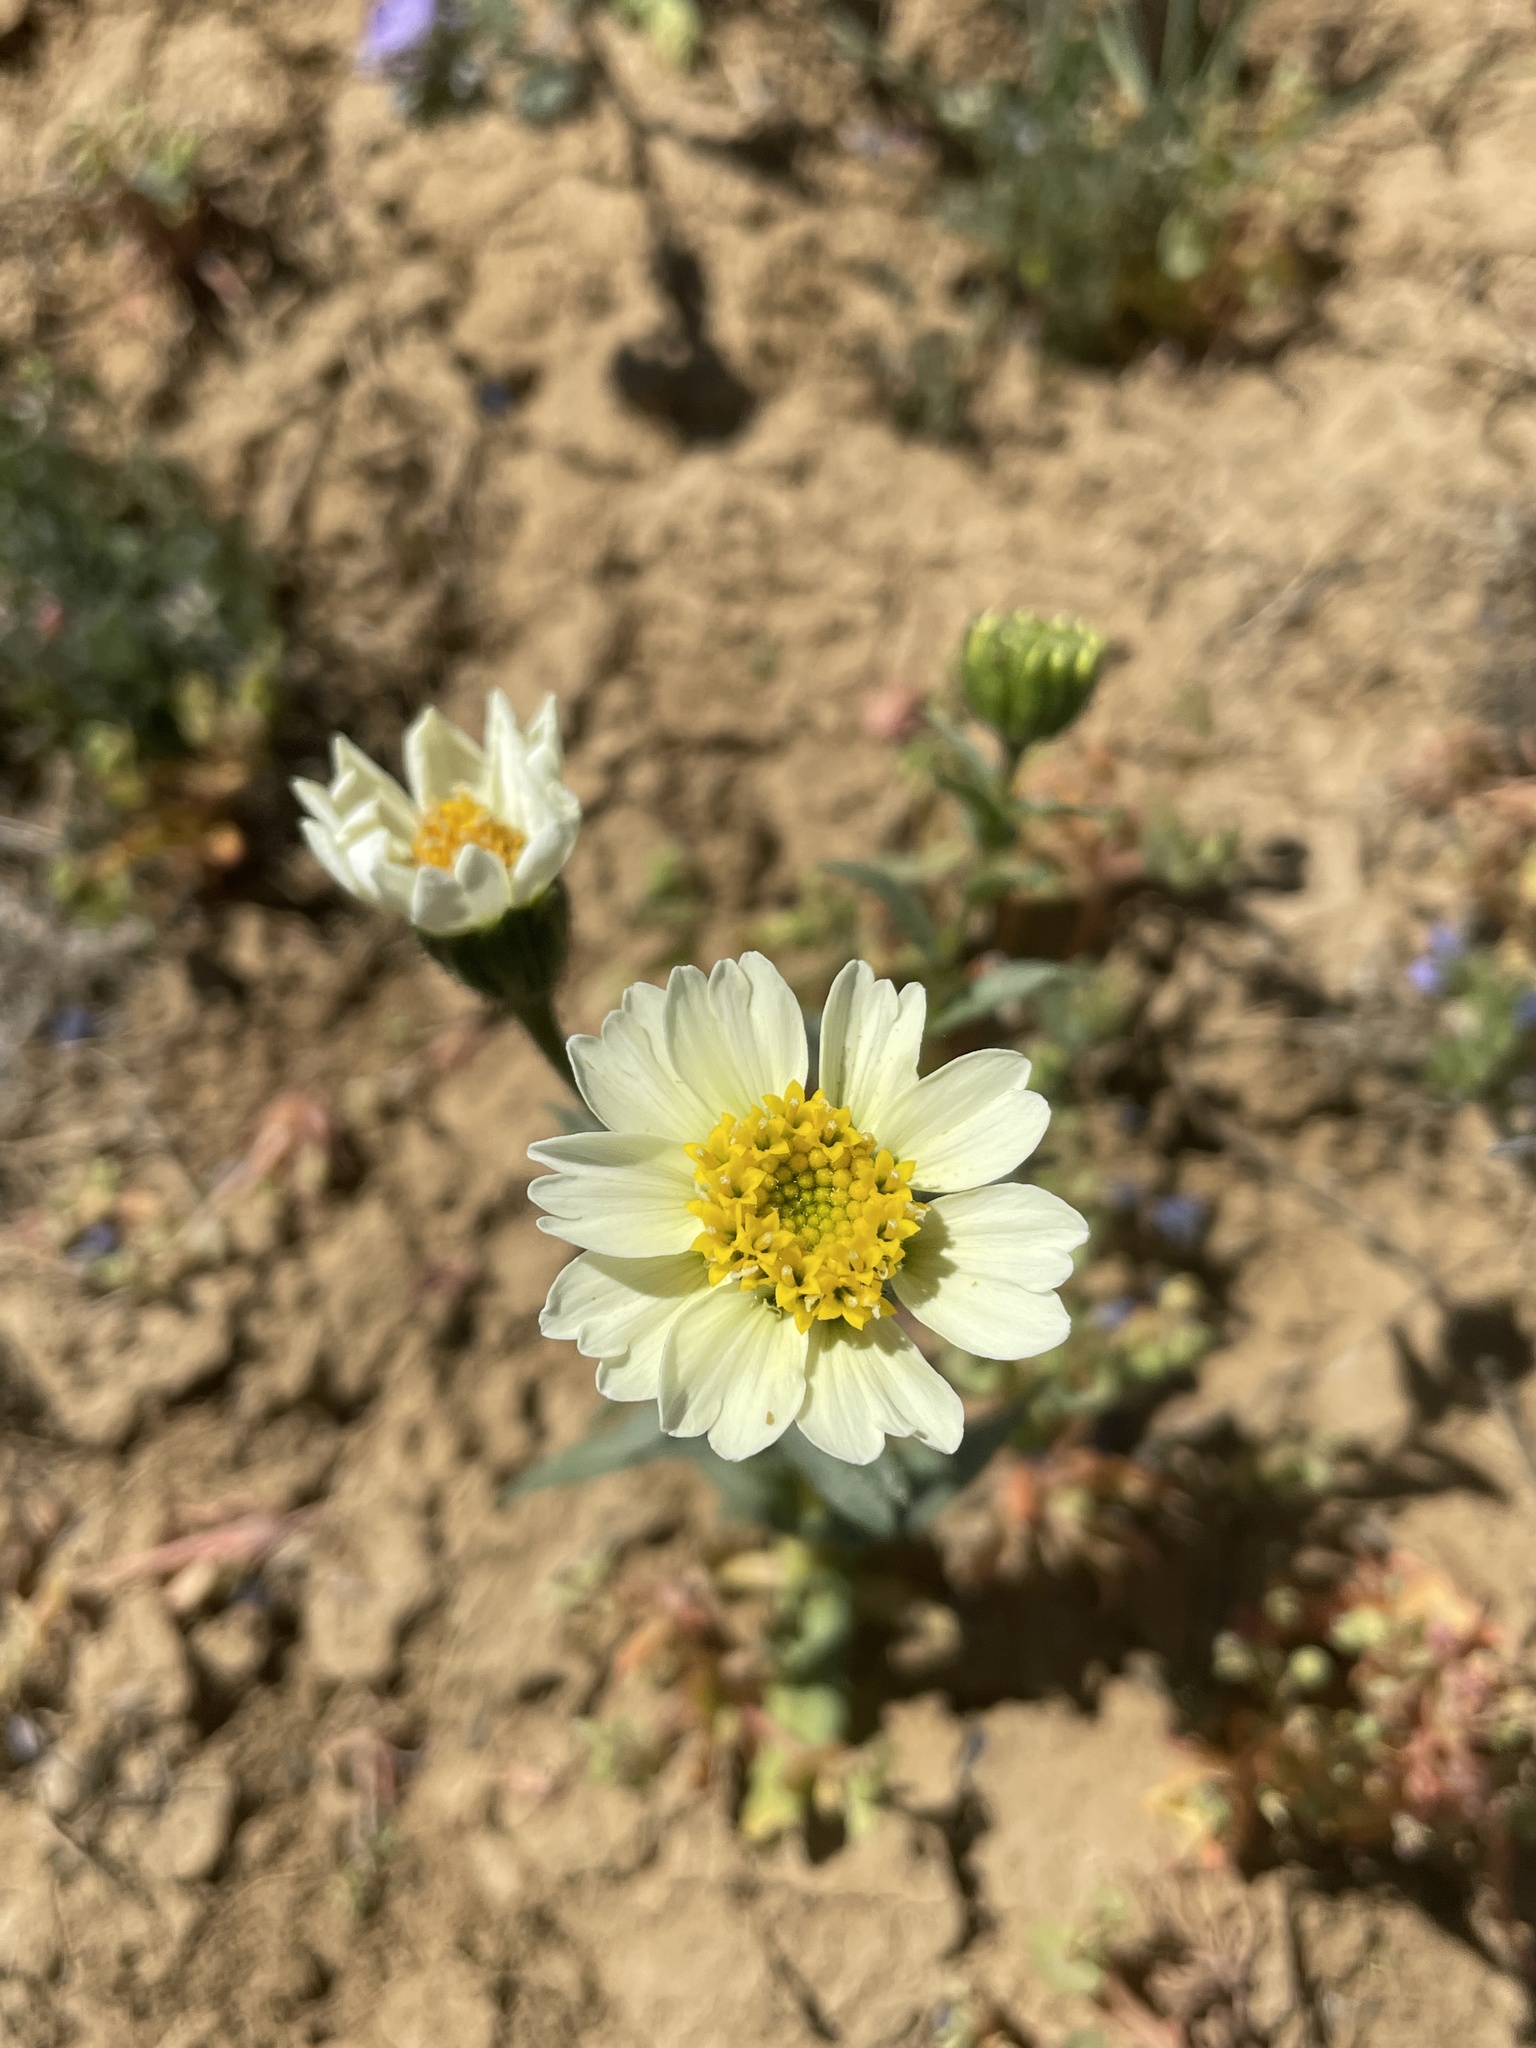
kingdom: Plantae
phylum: Tracheophyta
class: Magnoliopsida
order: Asterales
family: Asteraceae
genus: Layia
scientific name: Layia heterotricha
